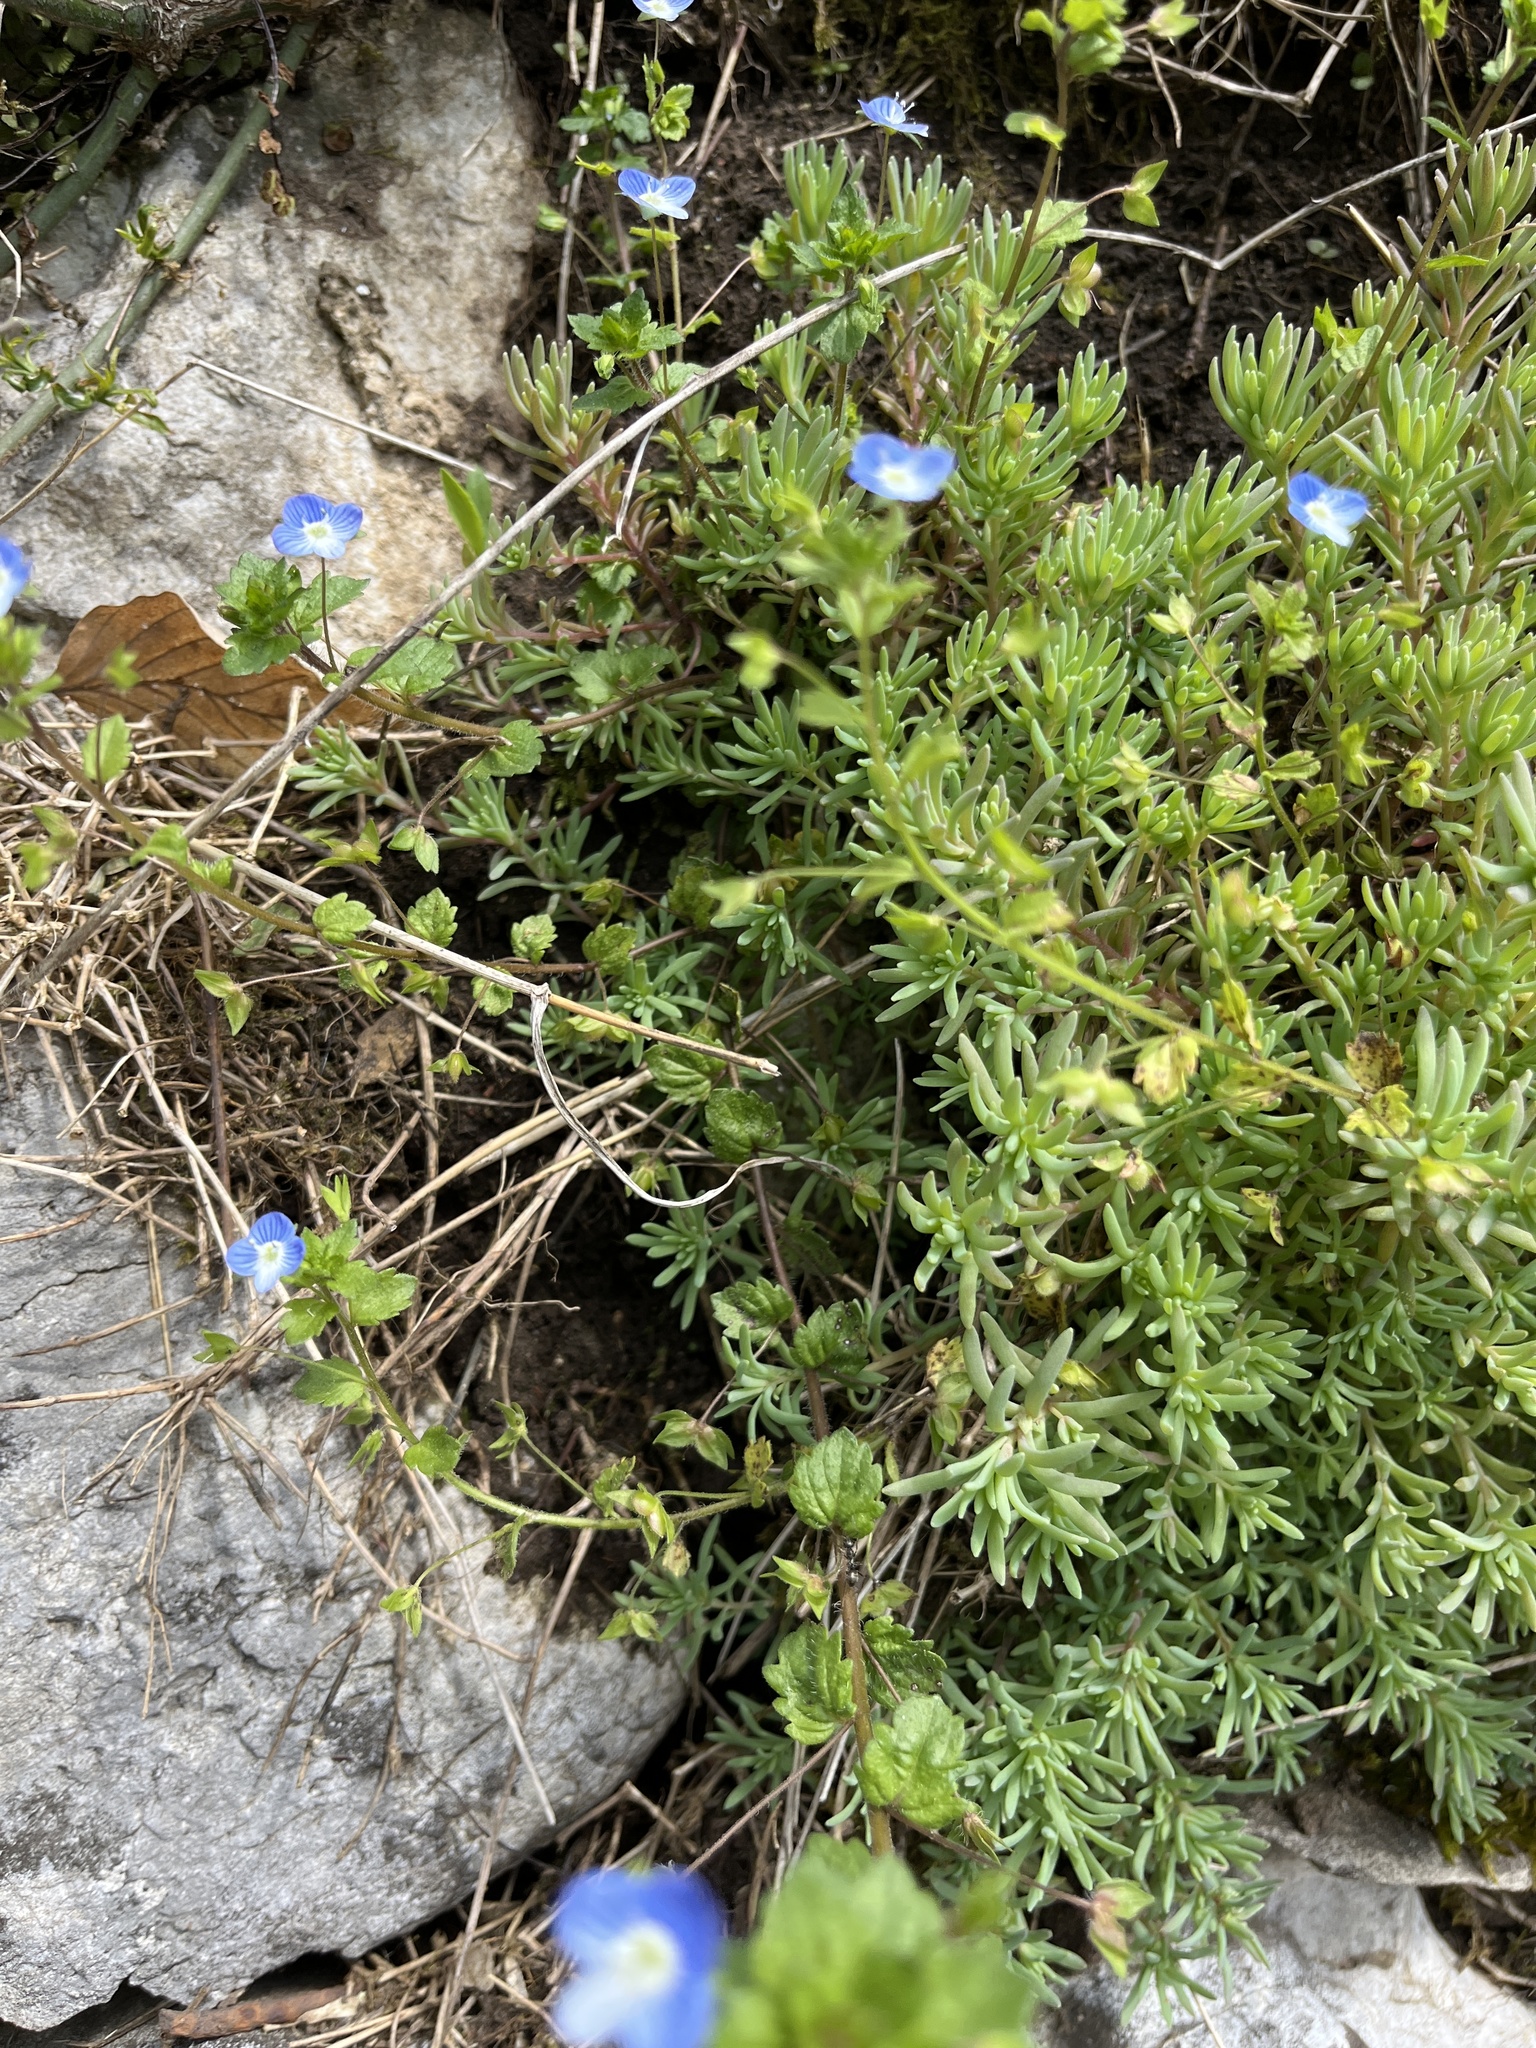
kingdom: Plantae
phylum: Tracheophyta
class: Magnoliopsida
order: Lamiales
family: Plantaginaceae
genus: Veronica
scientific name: Veronica persica
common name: Common field-speedwell
